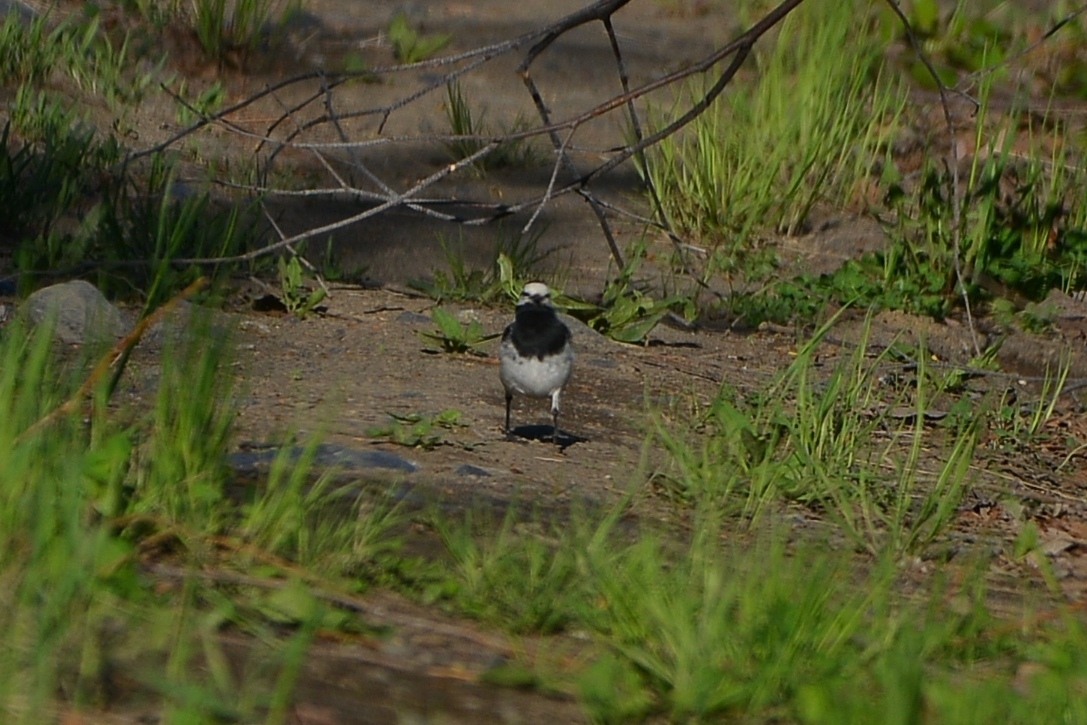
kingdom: Animalia
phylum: Chordata
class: Aves
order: Passeriformes
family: Motacillidae
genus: Motacilla
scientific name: Motacilla alba
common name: White wagtail
